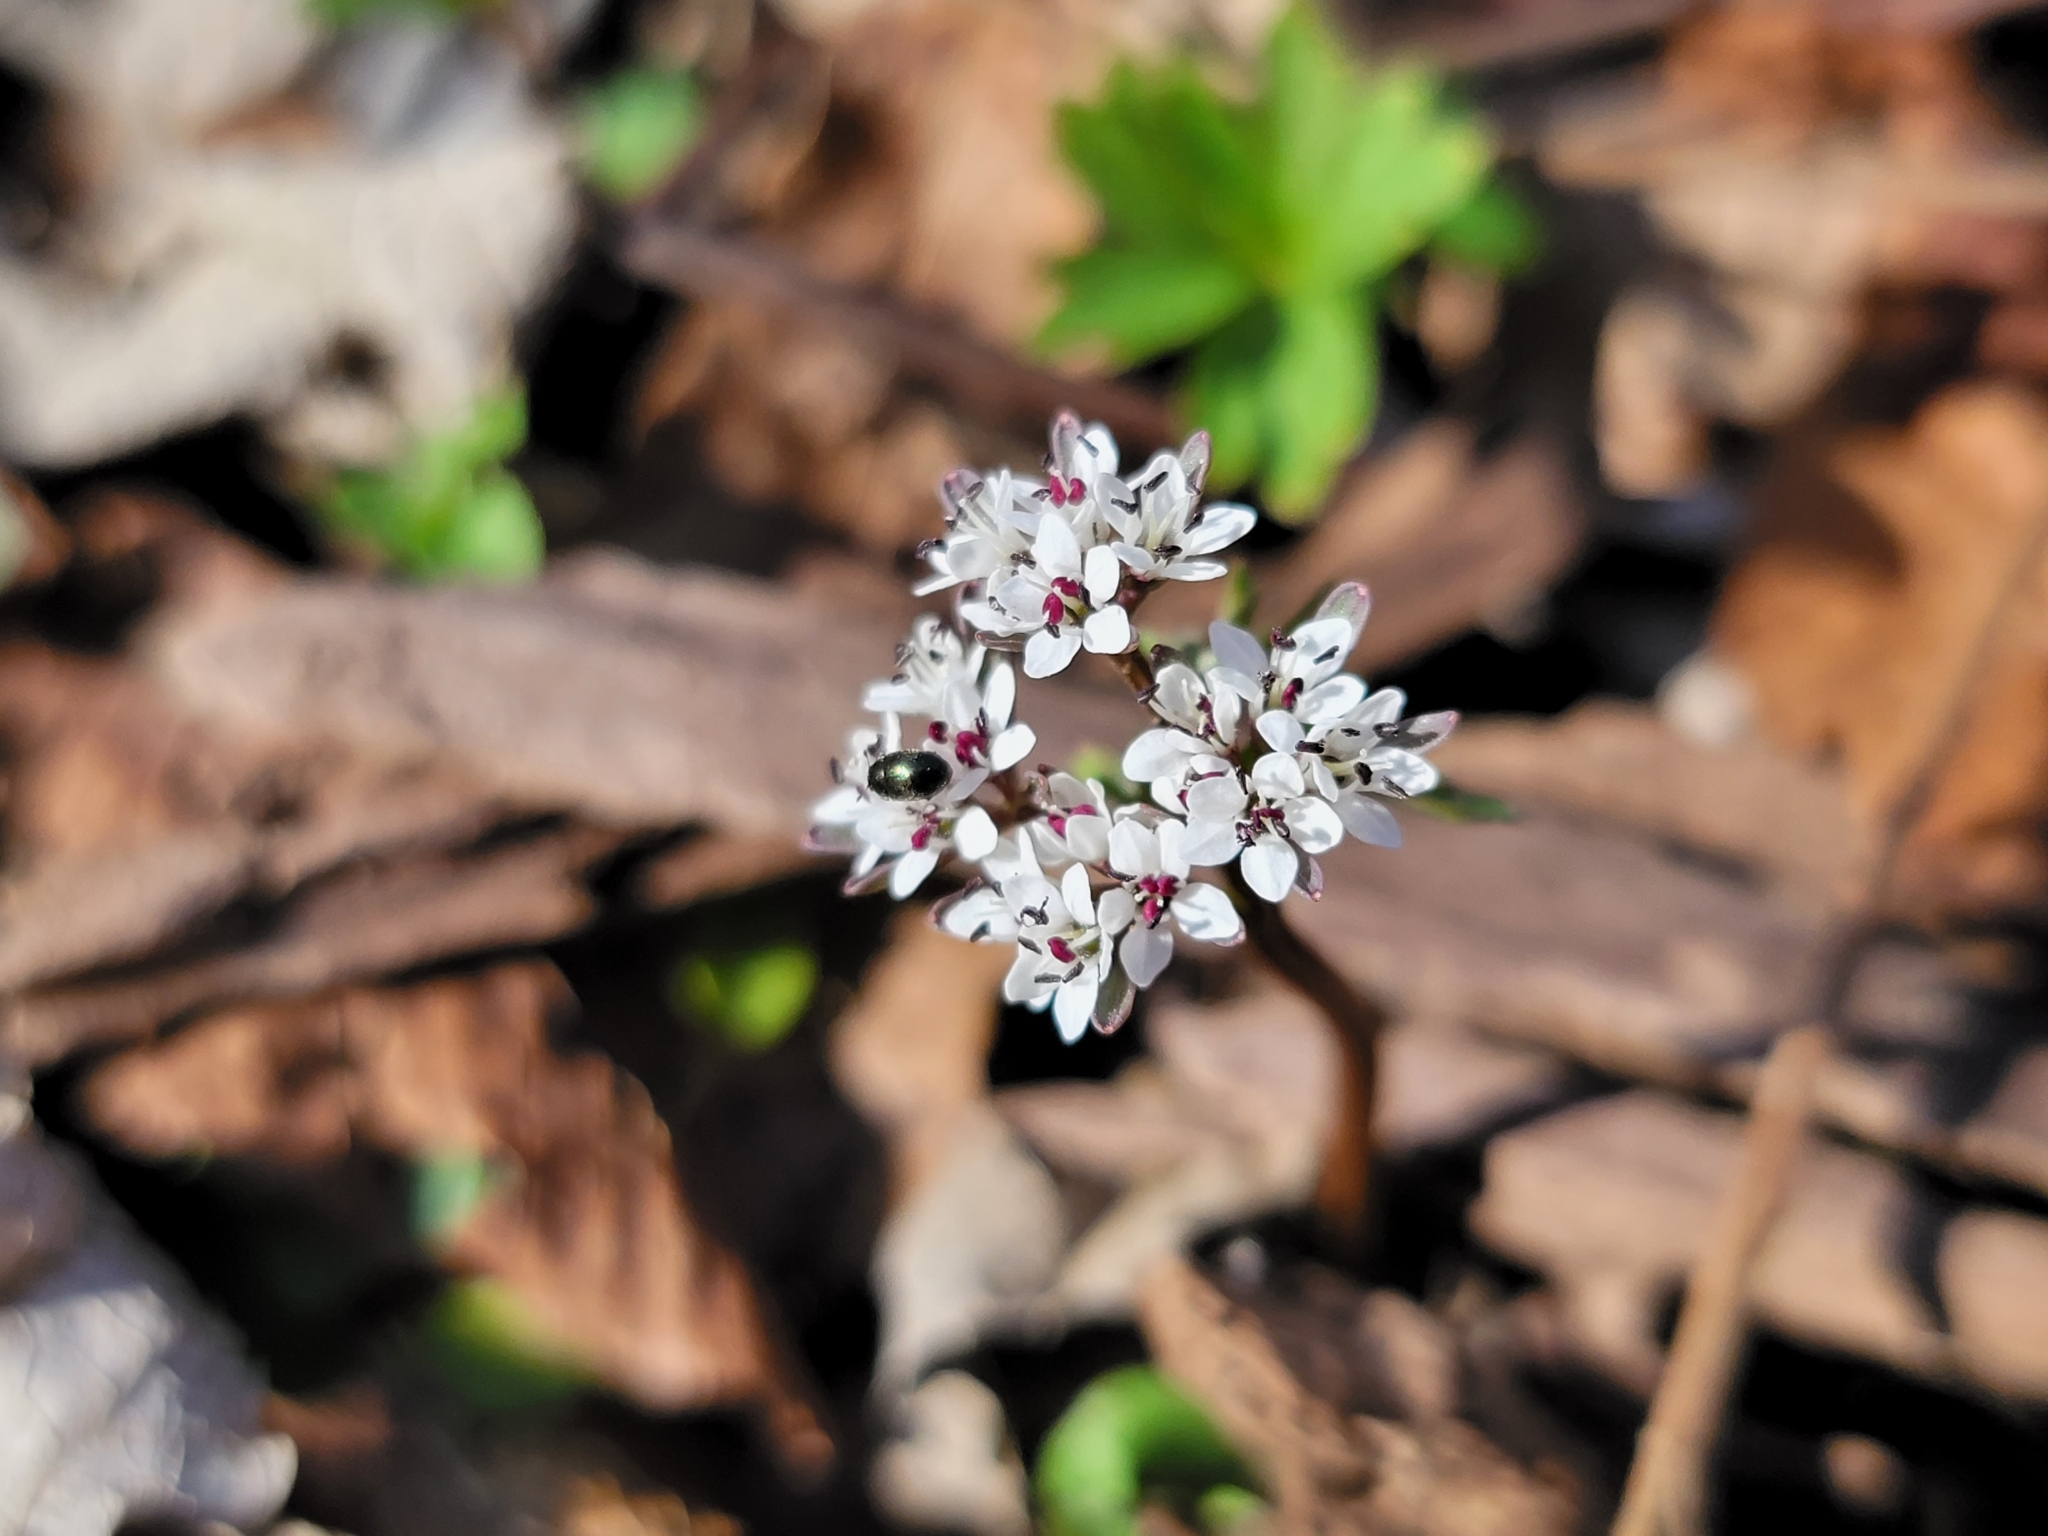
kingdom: Plantae
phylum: Tracheophyta
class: Magnoliopsida
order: Apiales
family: Apiaceae
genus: Erigenia
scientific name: Erigenia bulbosa
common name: Pepper-and-salt
